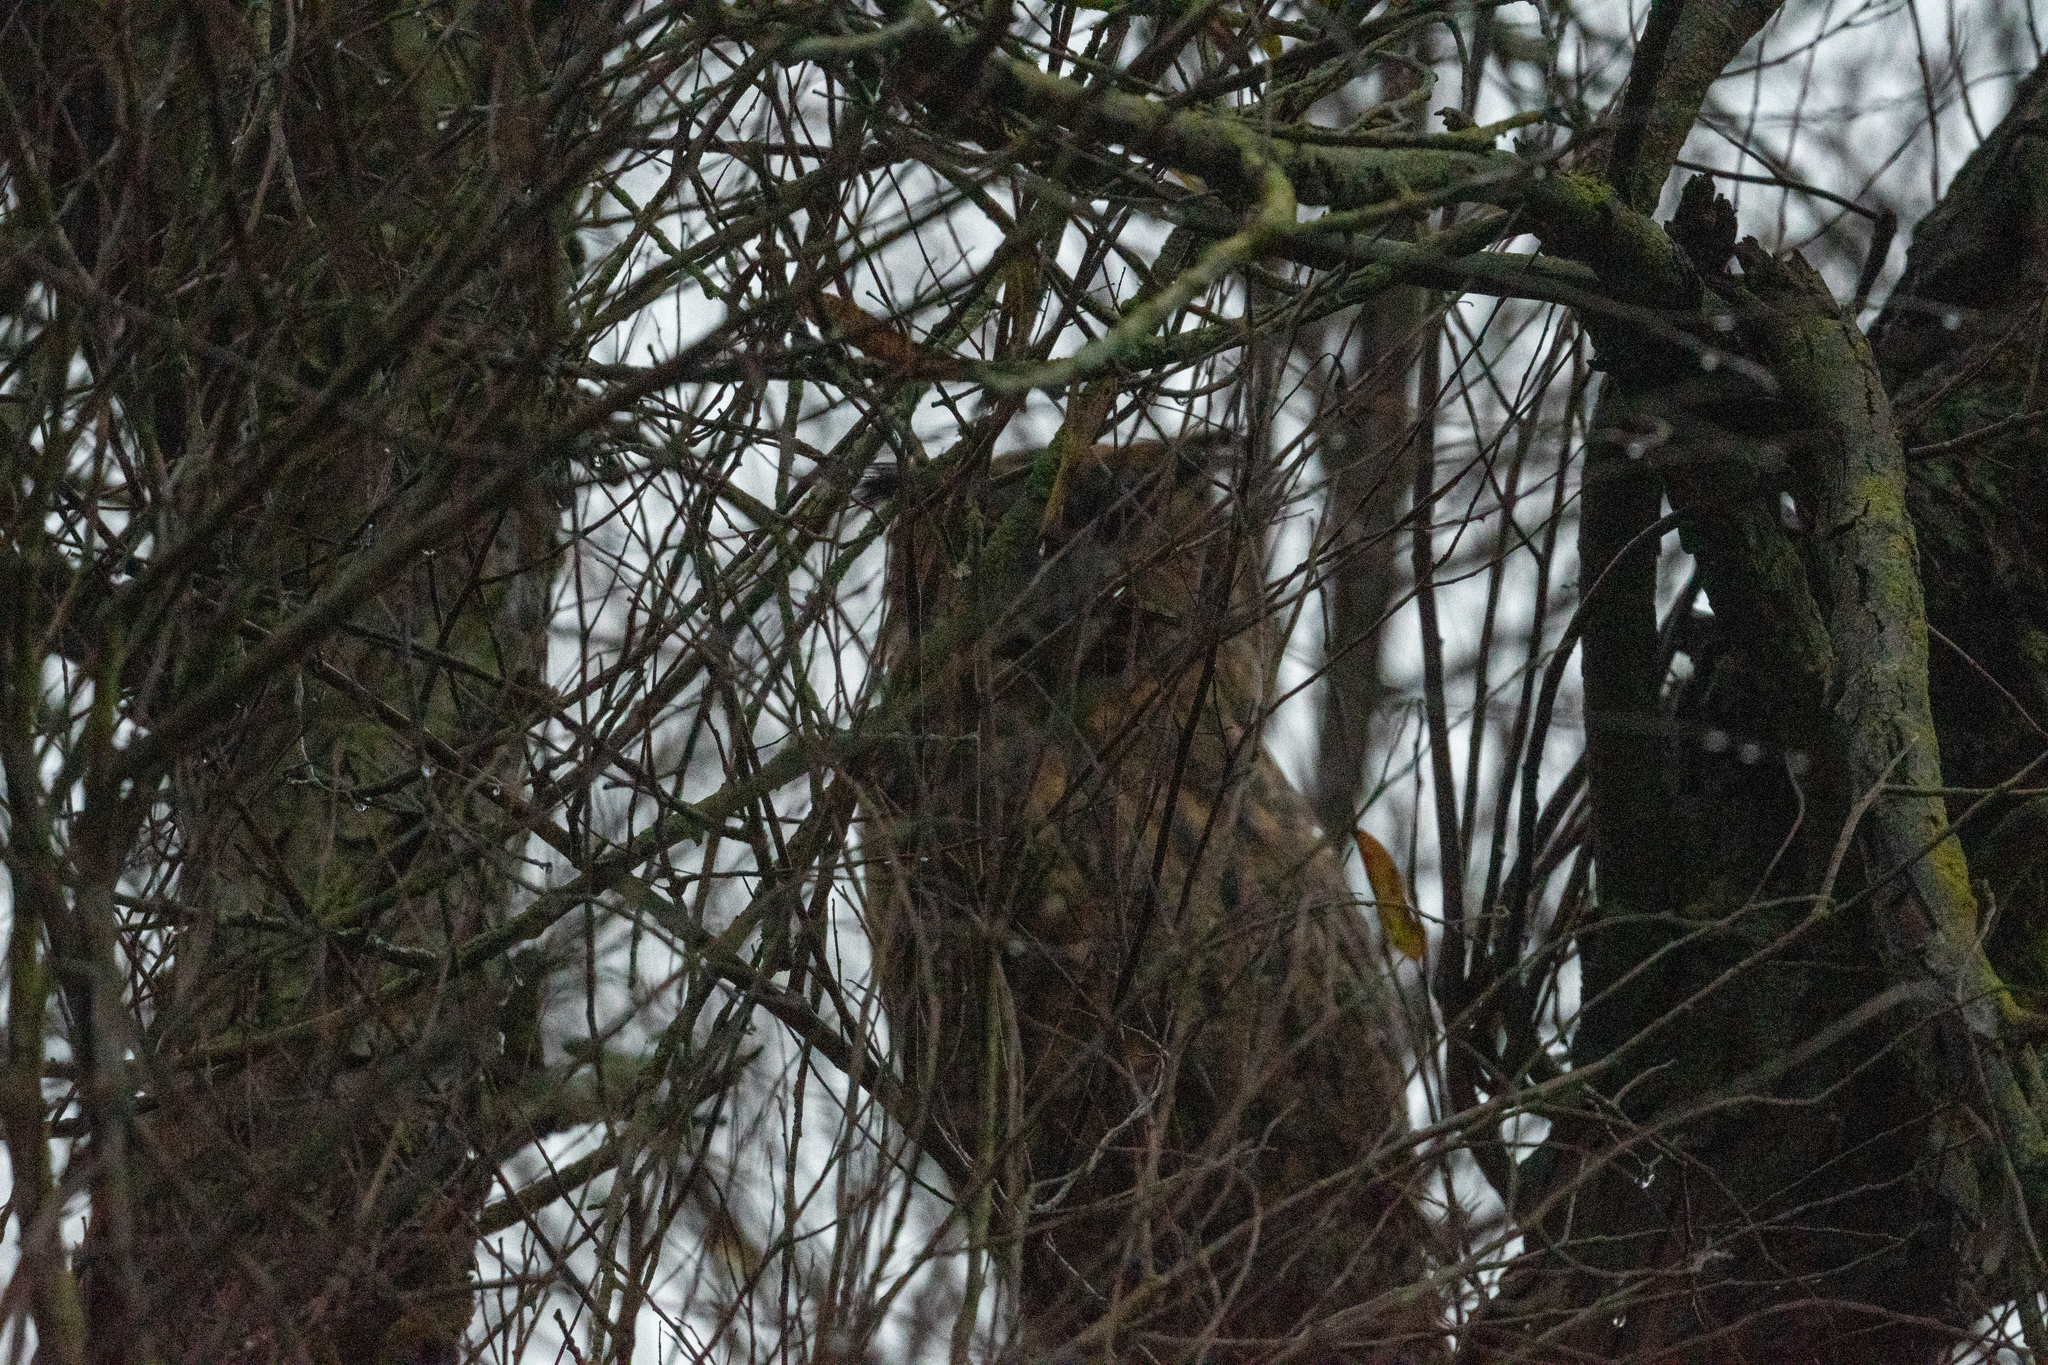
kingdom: Animalia
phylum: Chordata
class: Aves
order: Strigiformes
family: Strigidae
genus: Bubo
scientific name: Bubo virginianus
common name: Great horned owl
